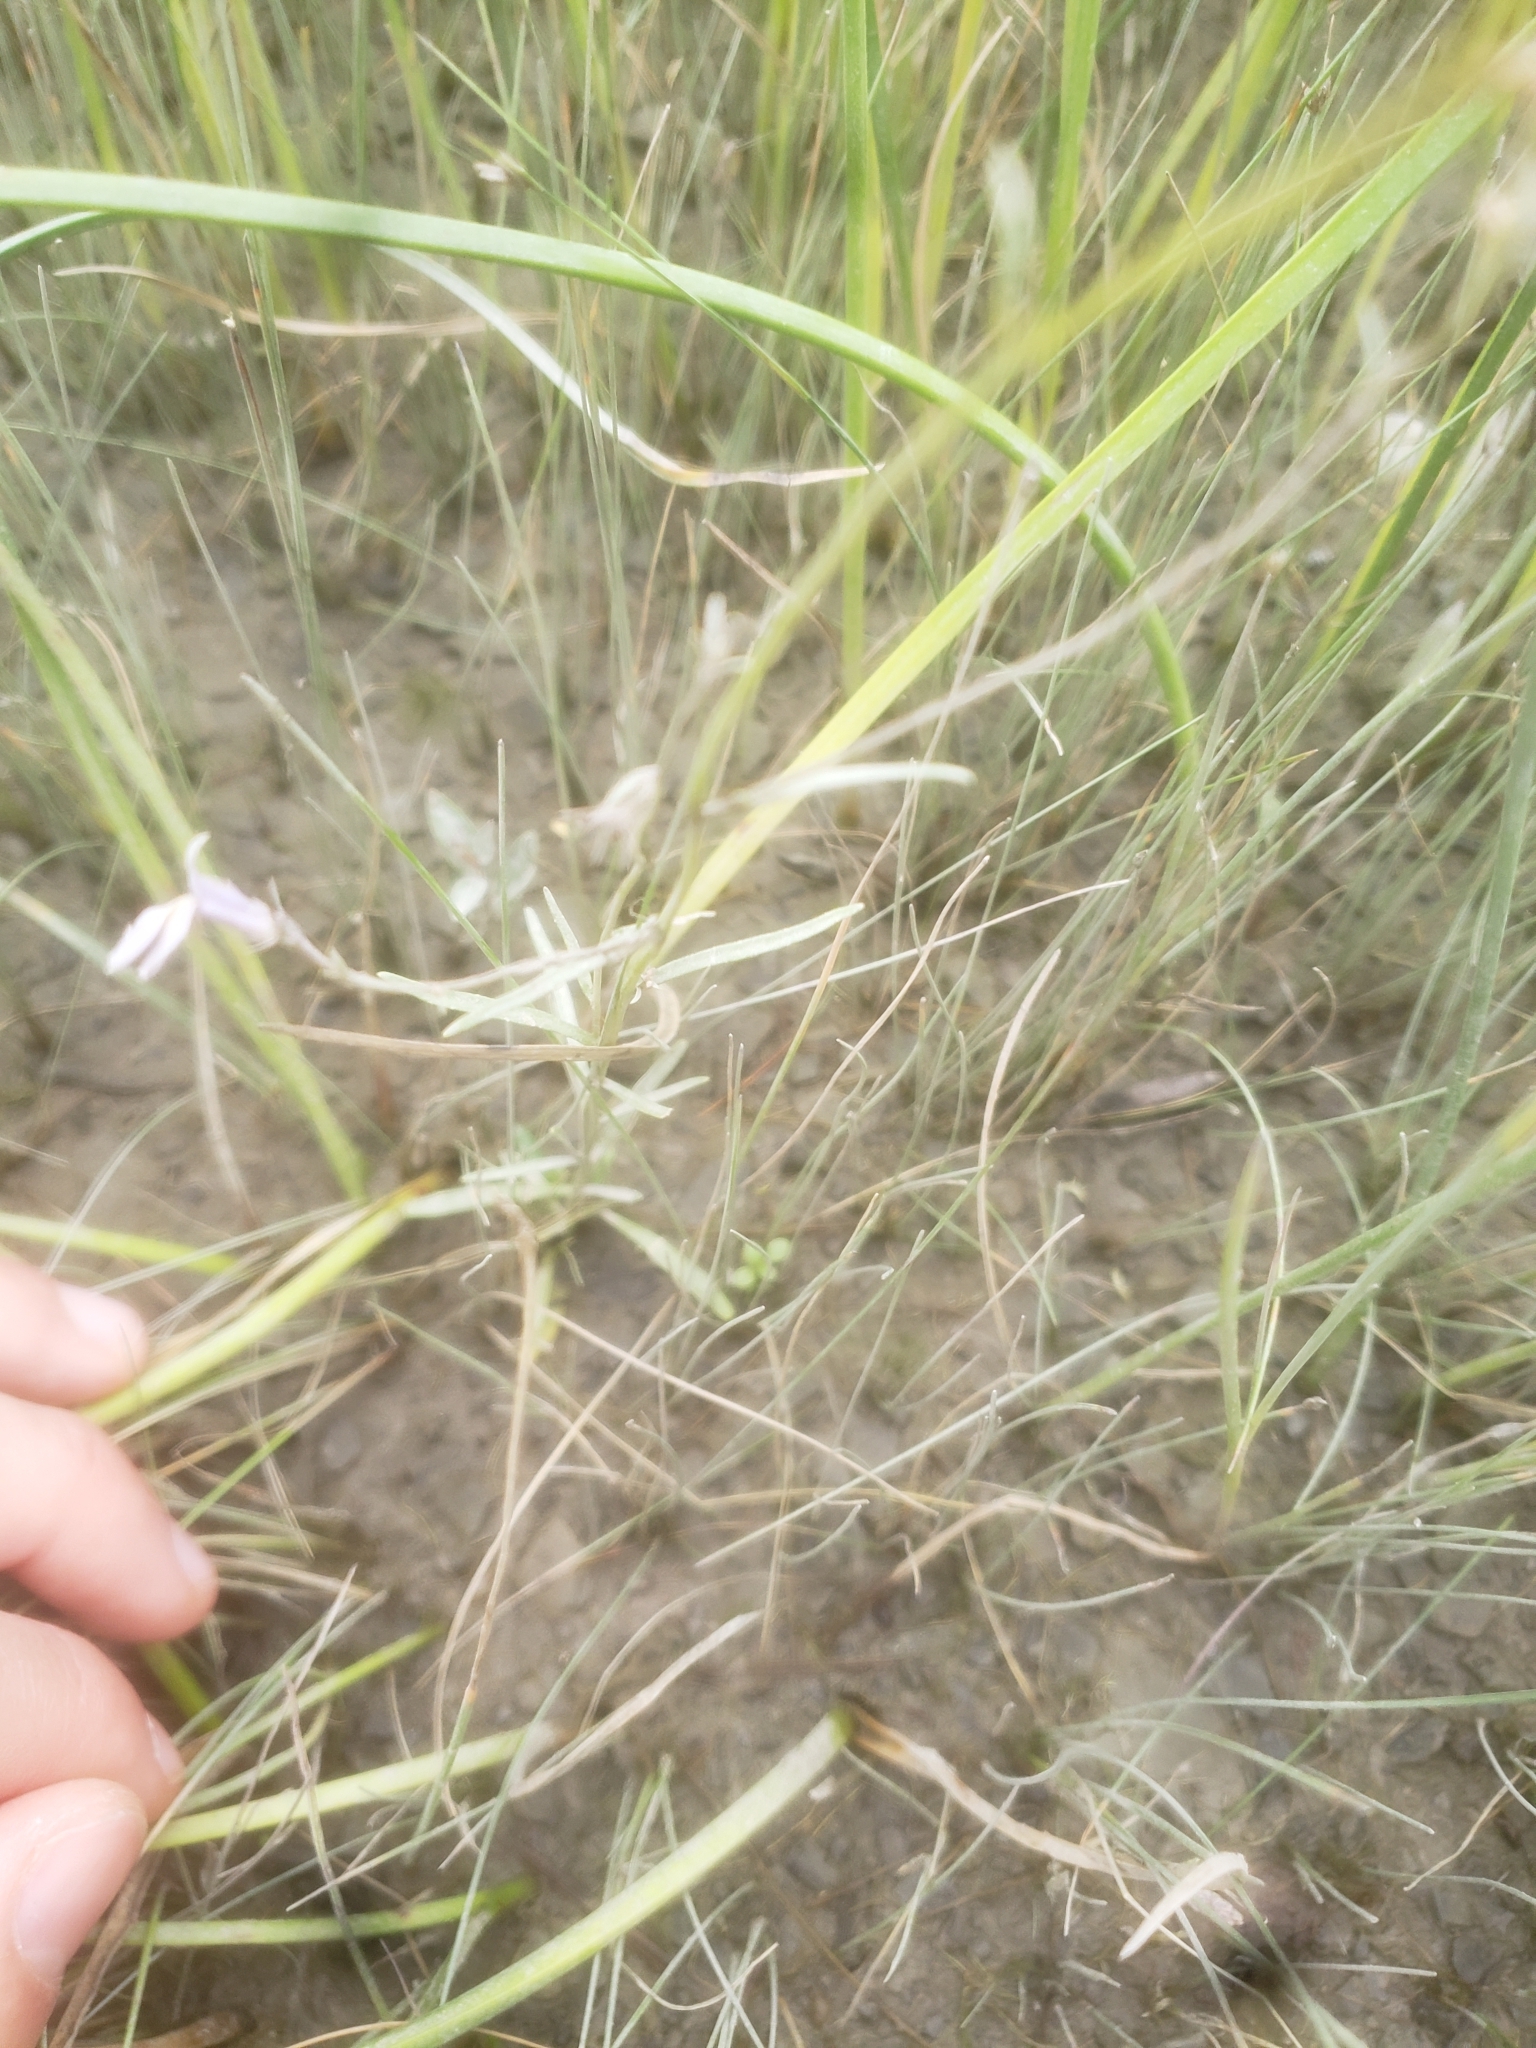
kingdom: Plantae
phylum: Tracheophyta
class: Magnoliopsida
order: Asterales
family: Campanulaceae
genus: Lobelia
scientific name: Lobelia kalmii
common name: Kalm's lobelia
